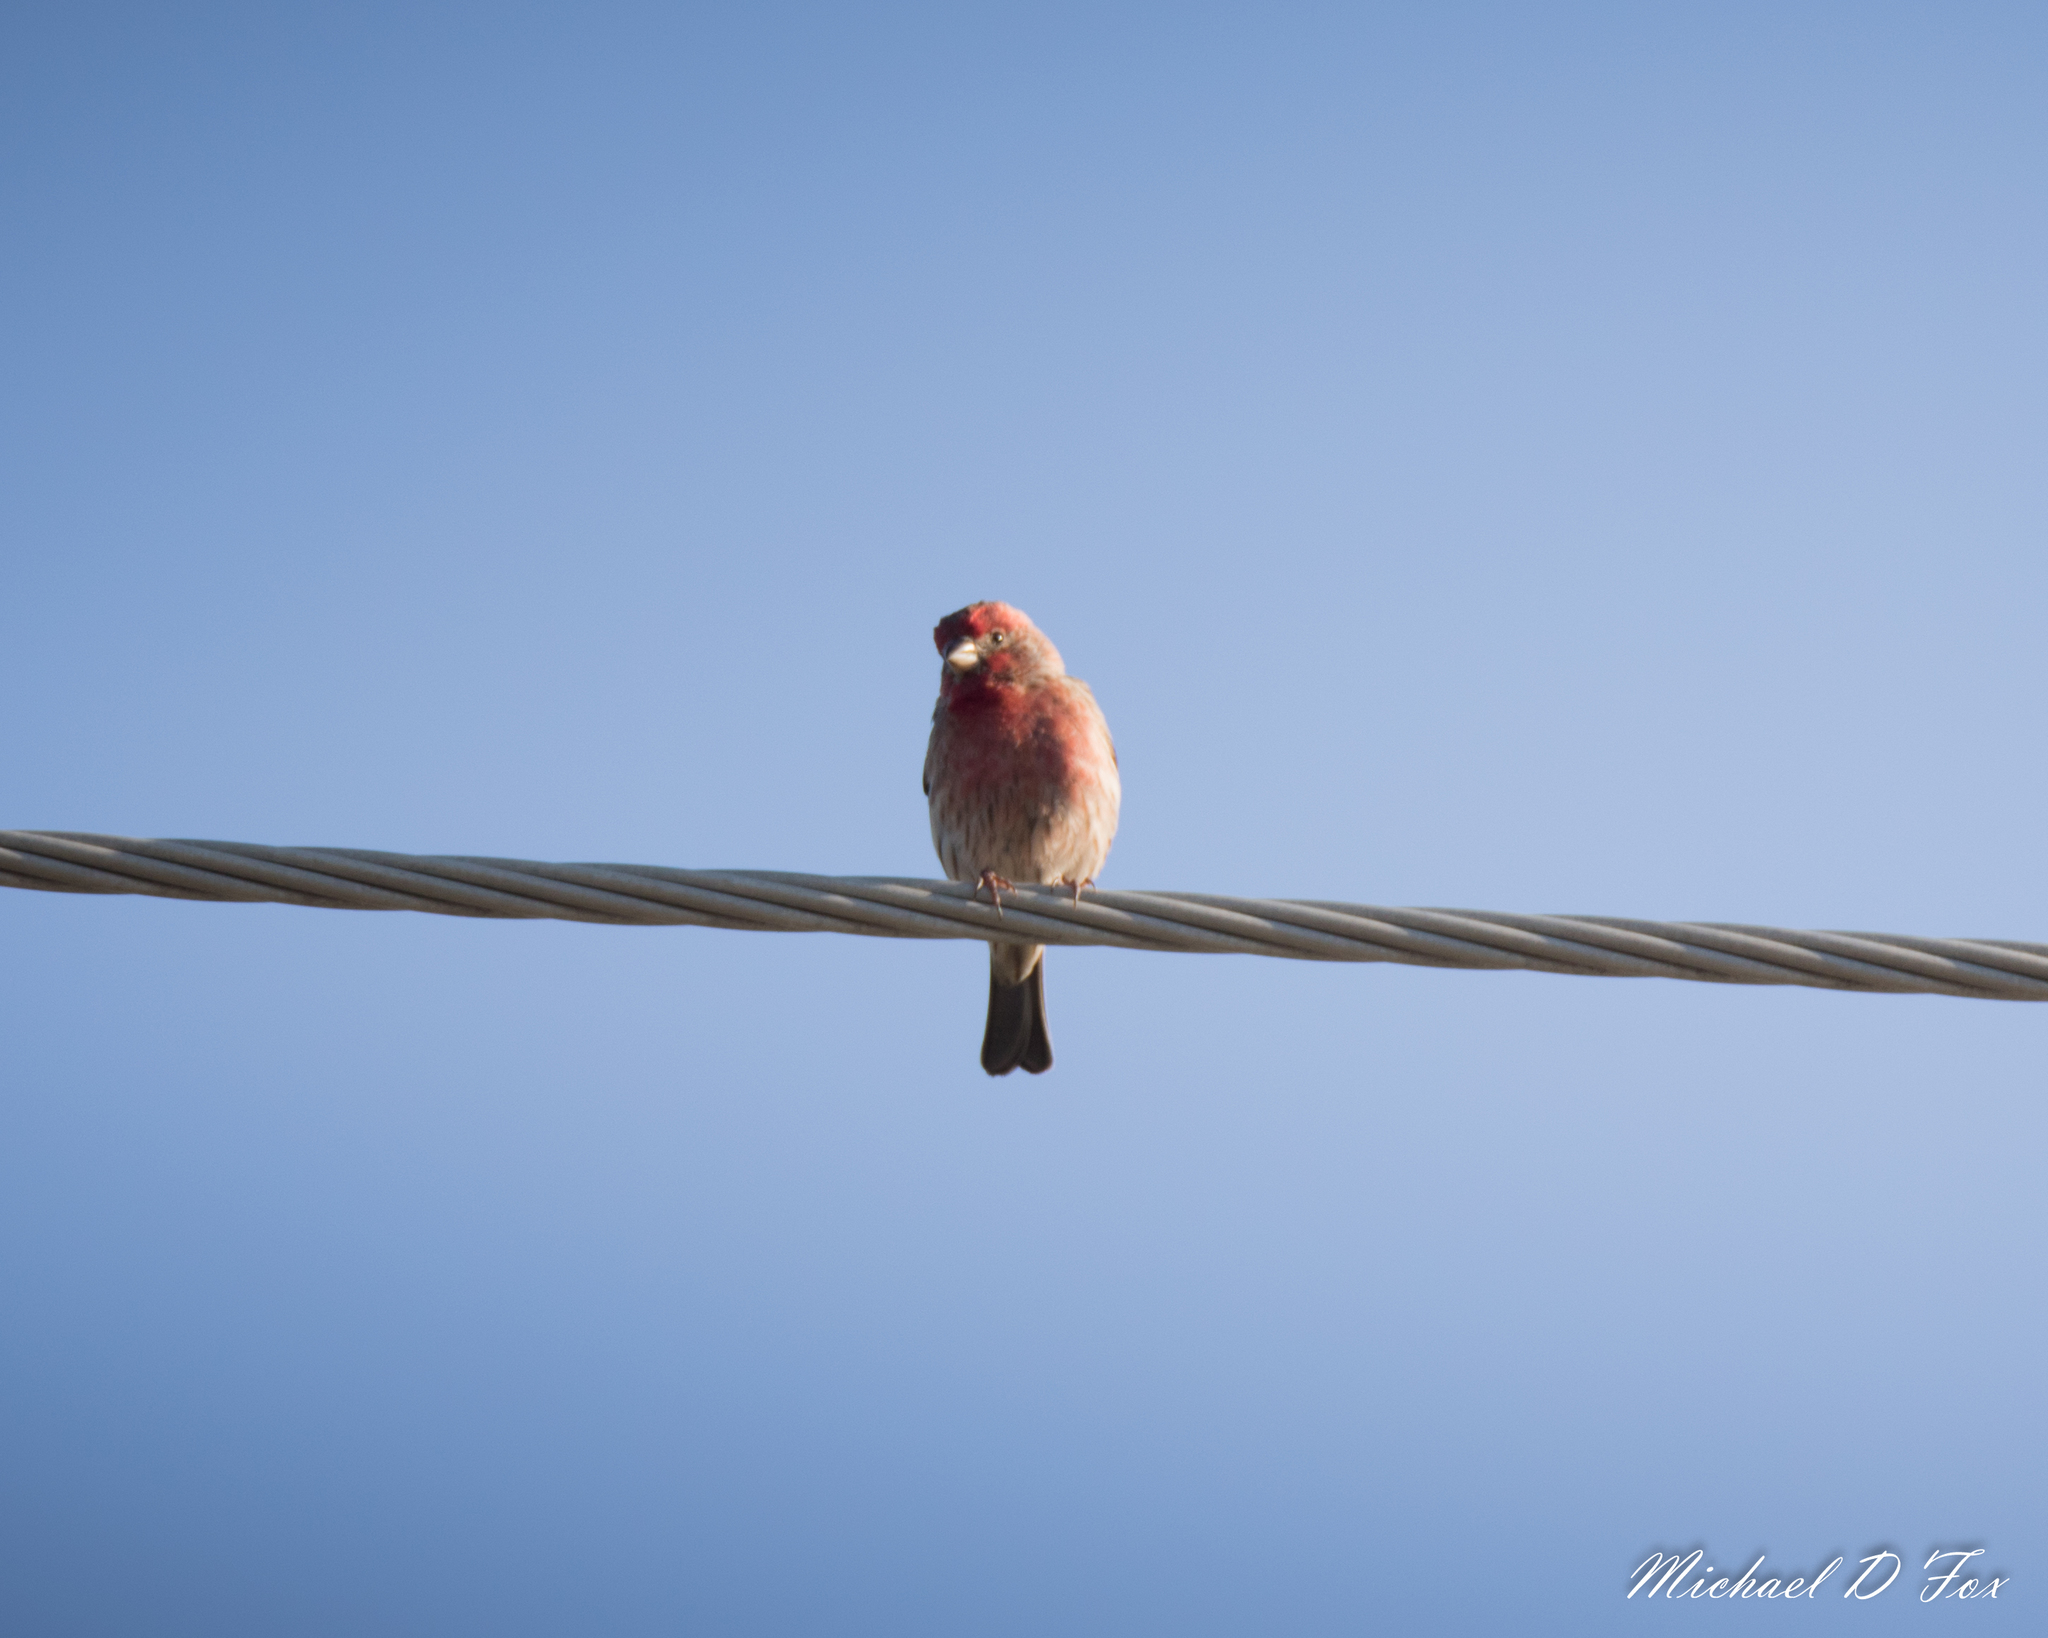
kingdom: Animalia
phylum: Chordata
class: Aves
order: Passeriformes
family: Fringillidae
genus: Haemorhous
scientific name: Haemorhous mexicanus
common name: House finch
